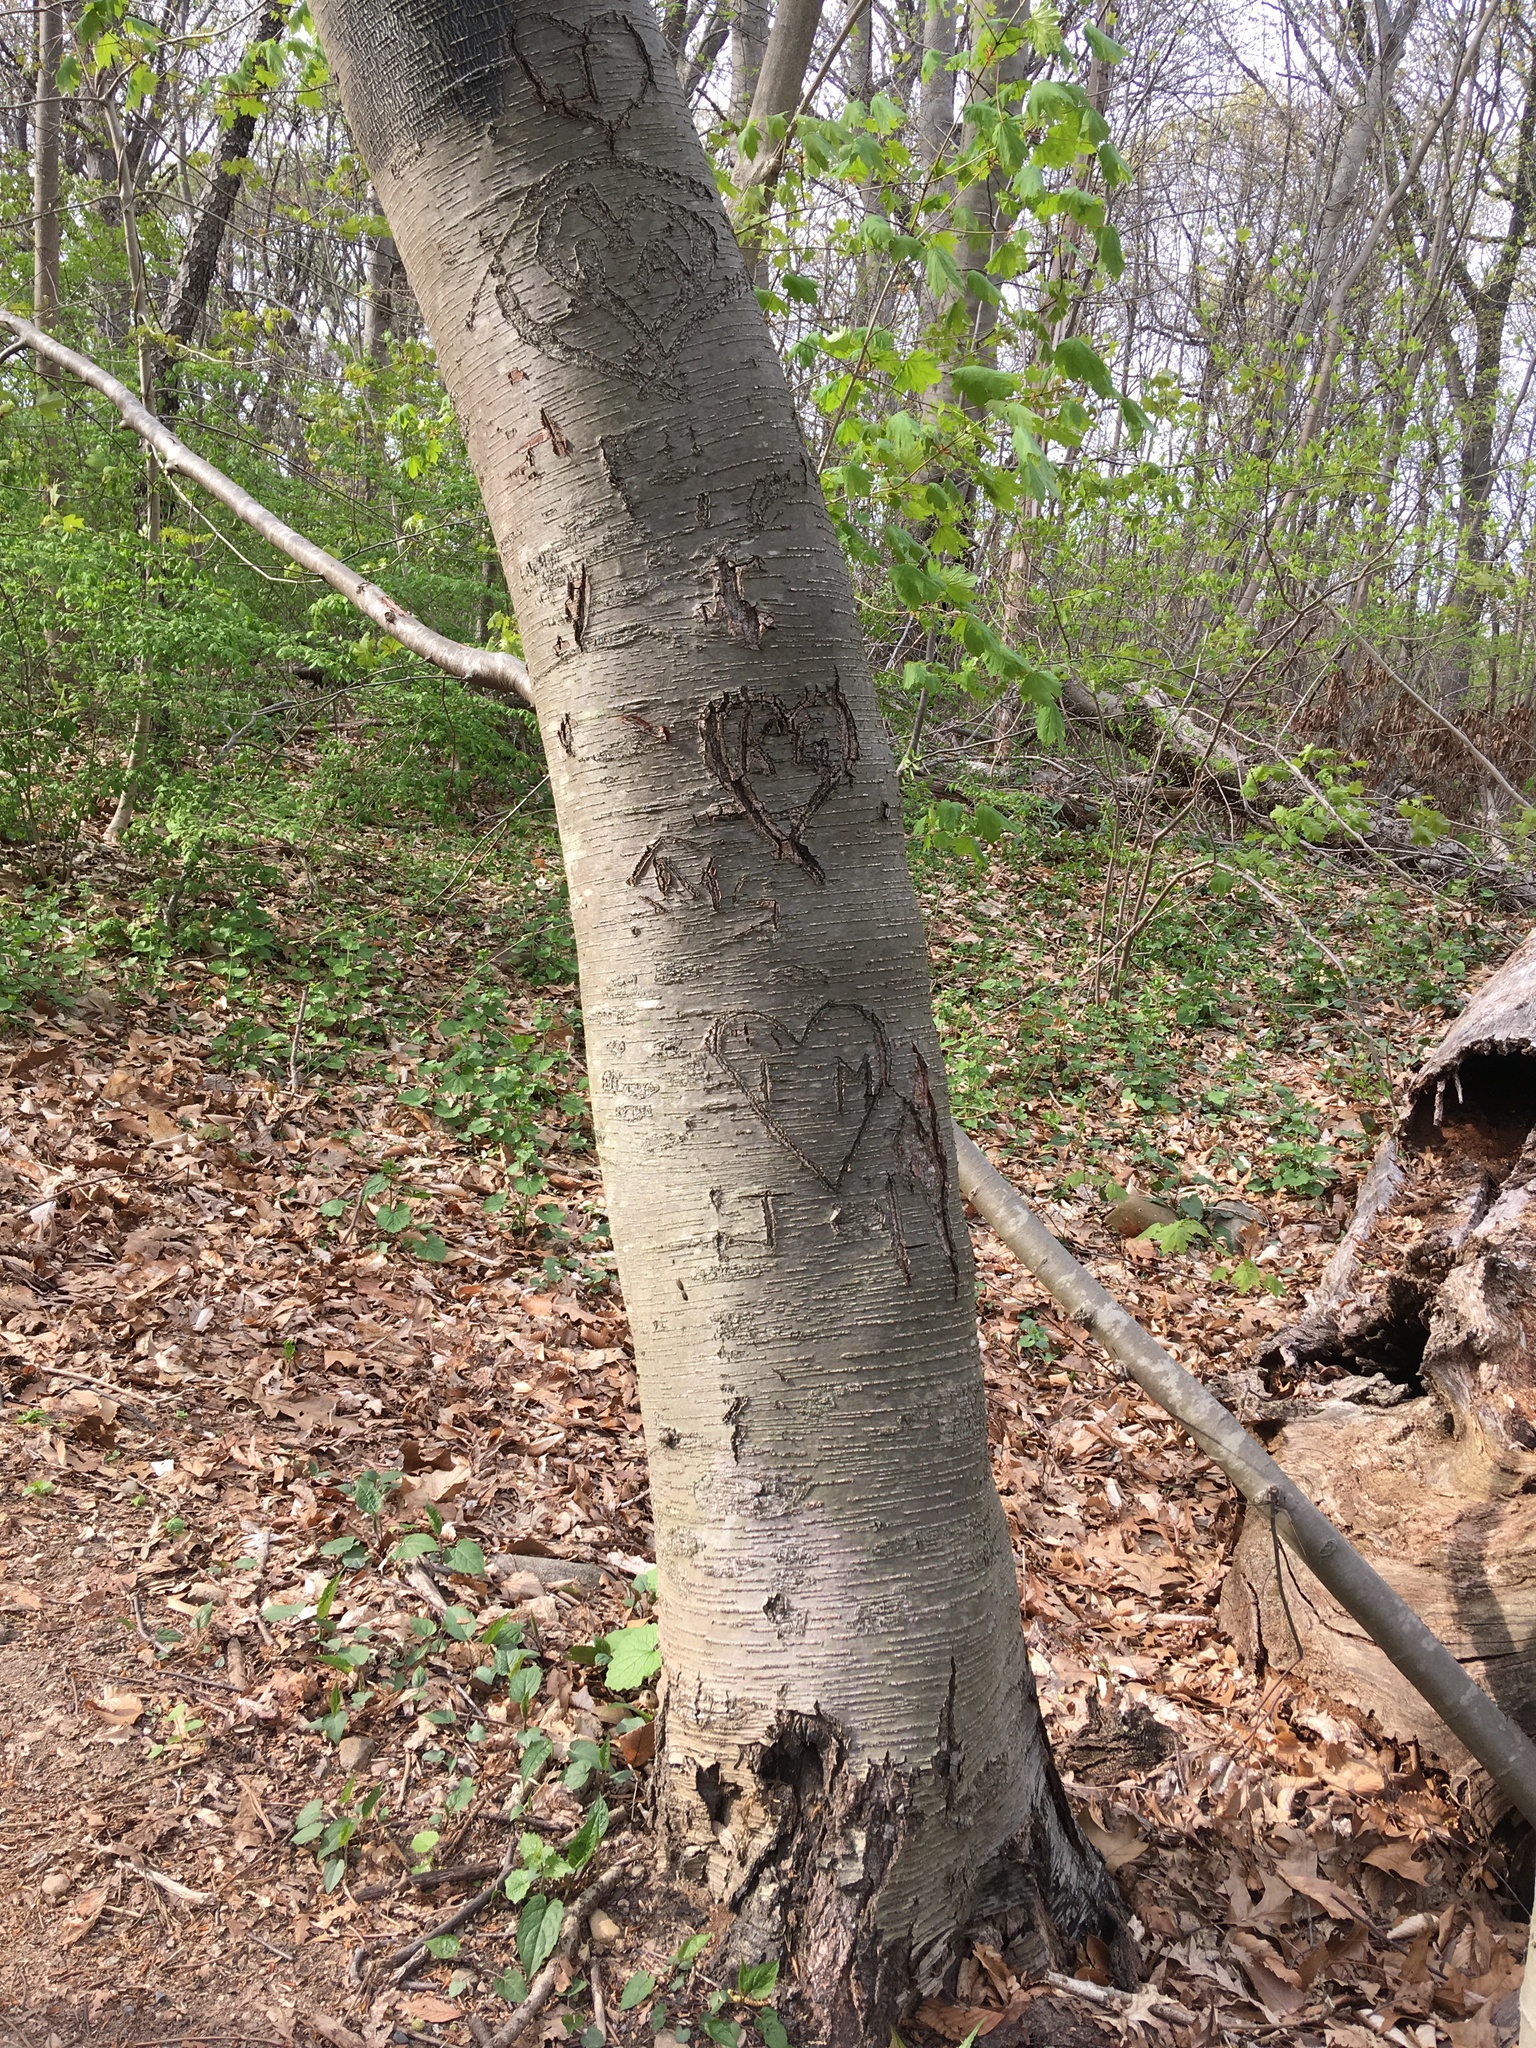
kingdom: Plantae
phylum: Tracheophyta
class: Magnoliopsida
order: Fagales
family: Betulaceae
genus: Betula
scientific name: Betula lenta
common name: Black birch
